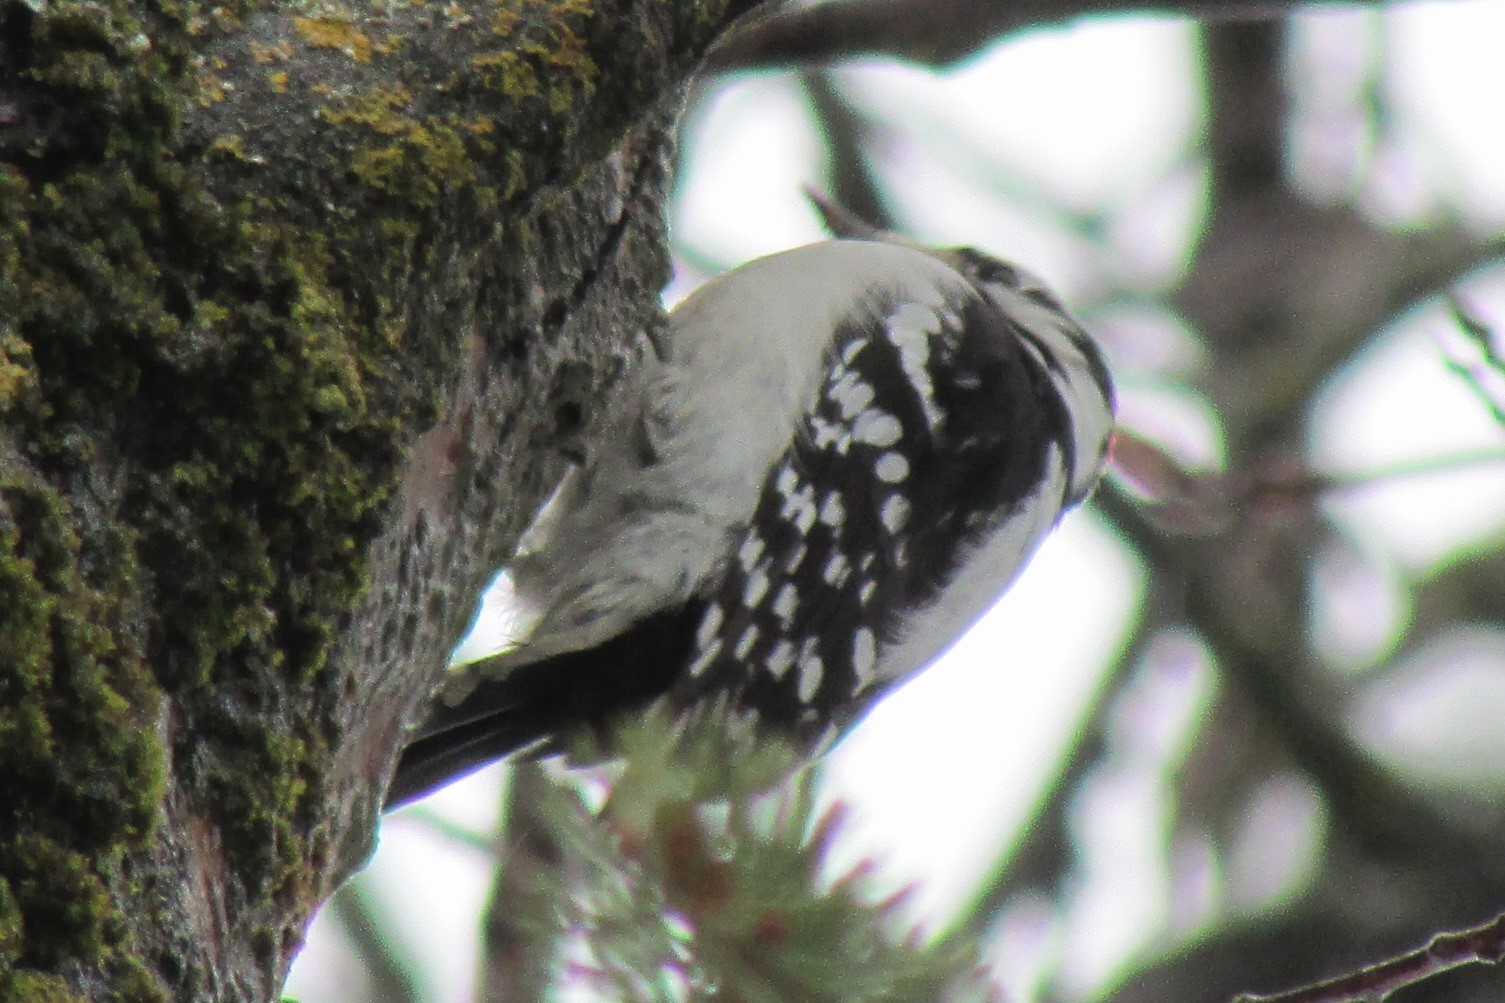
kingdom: Animalia
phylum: Chordata
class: Aves
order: Piciformes
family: Picidae
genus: Dryobates
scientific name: Dryobates pubescens
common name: Downy woodpecker
